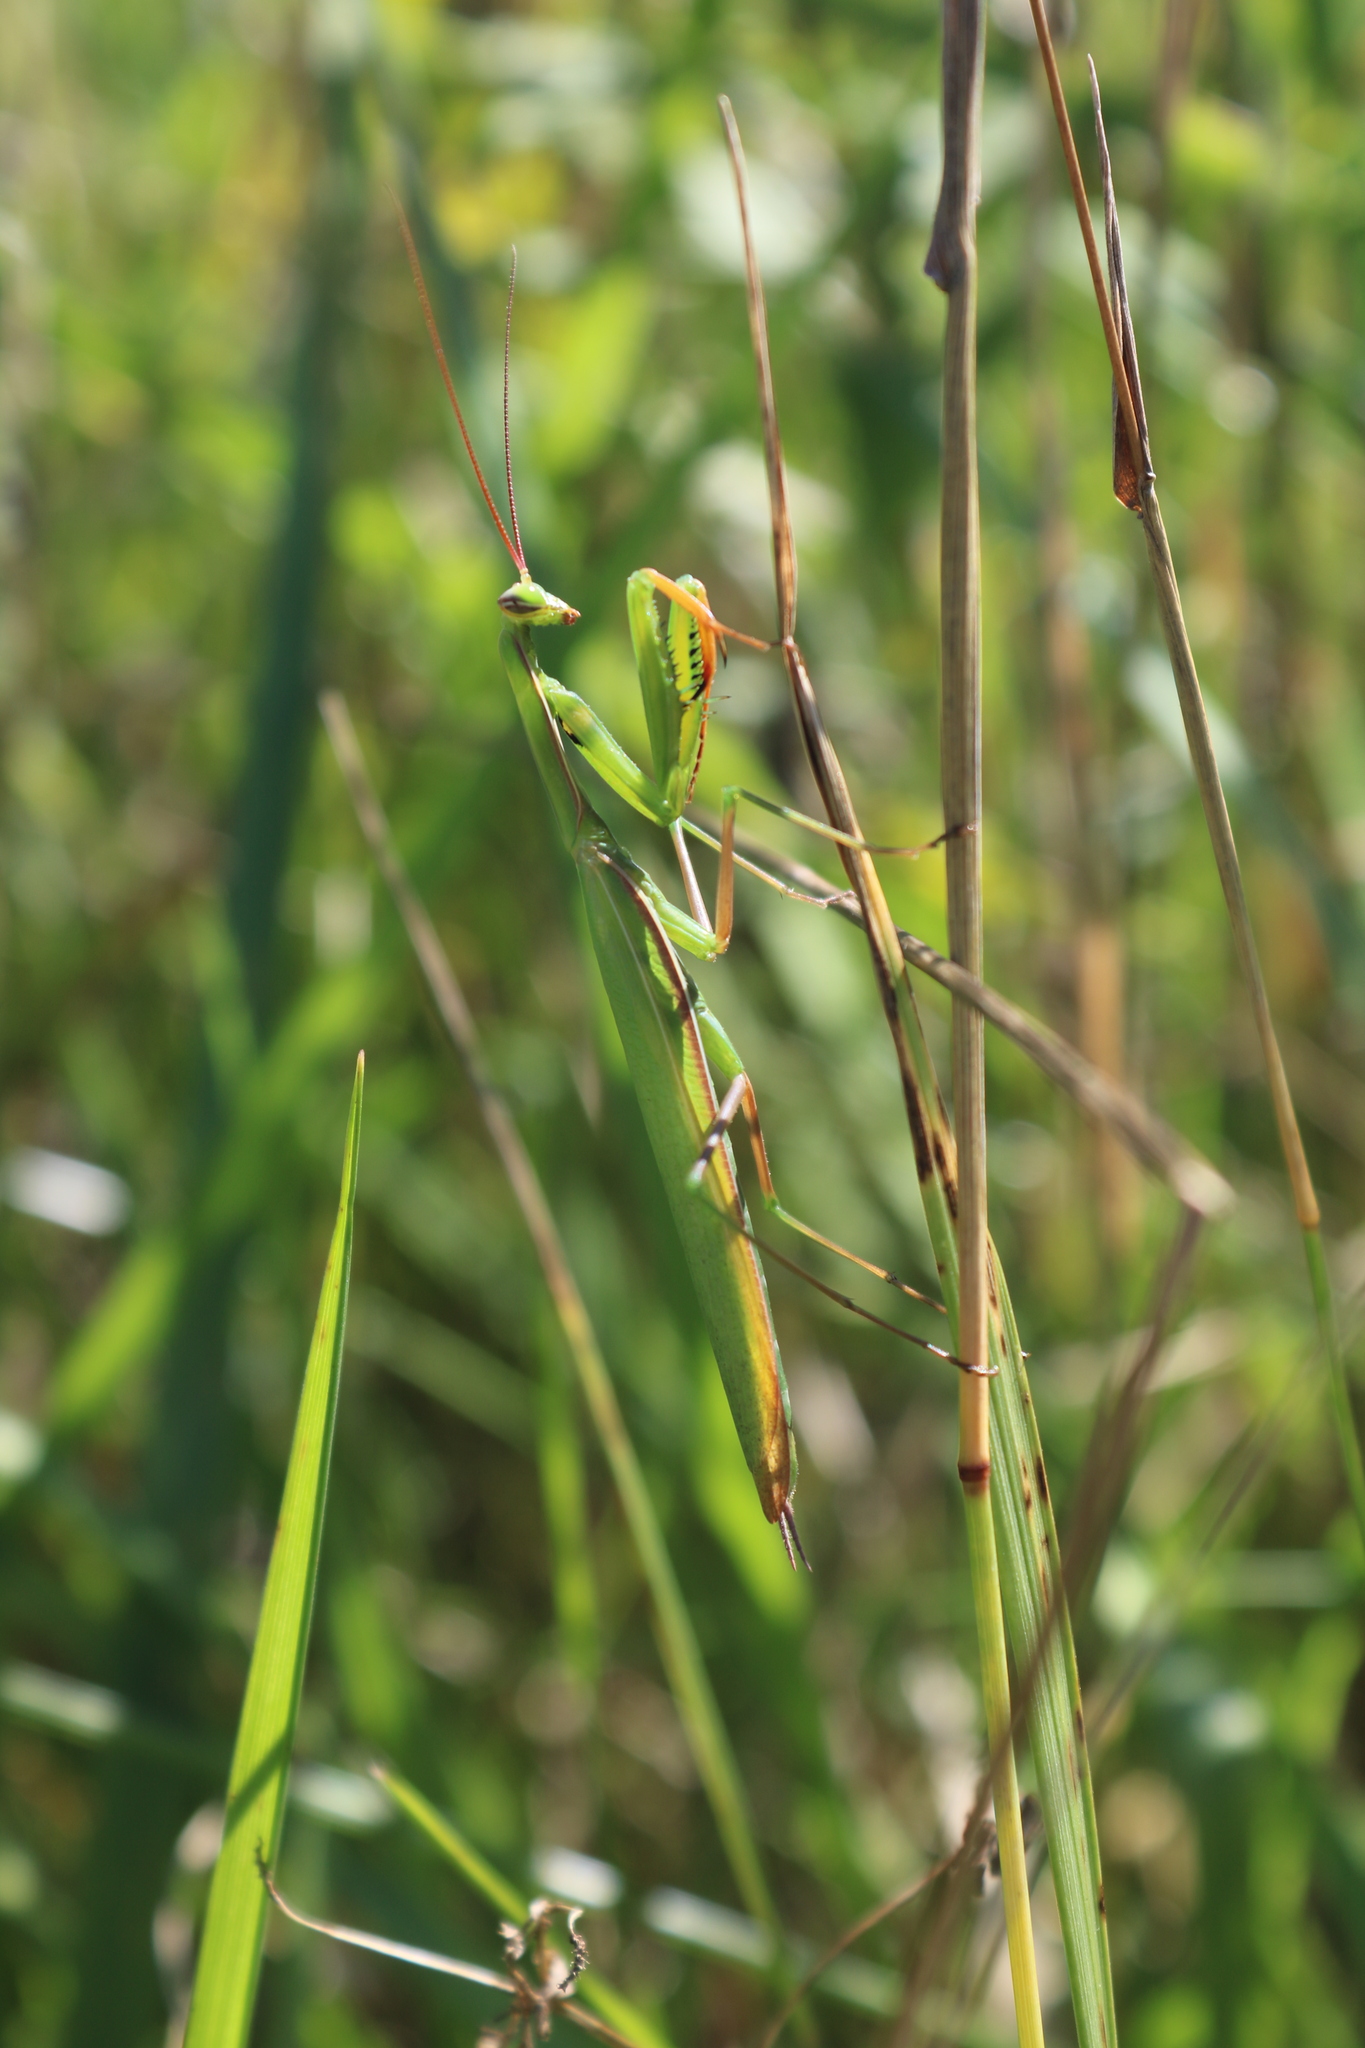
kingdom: Animalia
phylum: Arthropoda
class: Insecta
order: Mantodea
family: Mantidae
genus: Mantis
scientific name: Mantis religiosa
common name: Praying mantis
